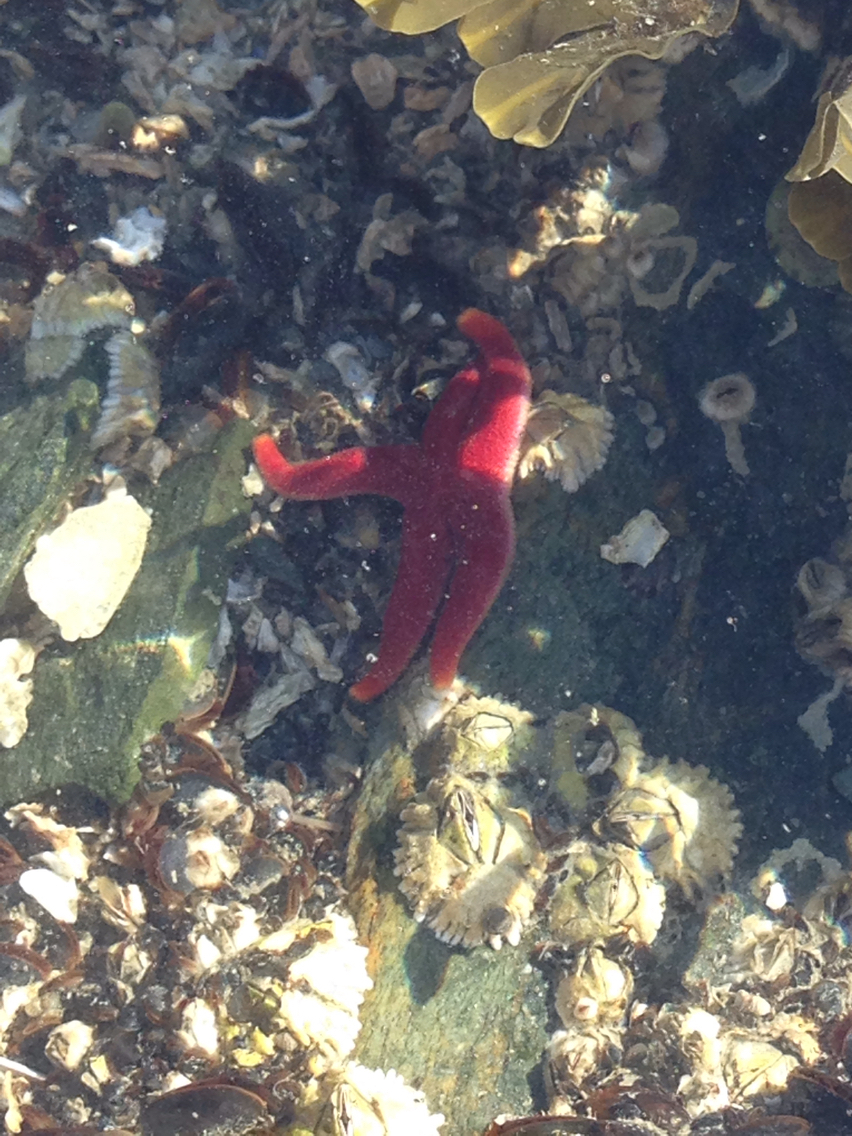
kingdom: Animalia
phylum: Echinodermata
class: Asteroidea
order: Spinulosida
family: Echinasteridae
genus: Henricia
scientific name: Henricia sanguinolenta
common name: Blood star
